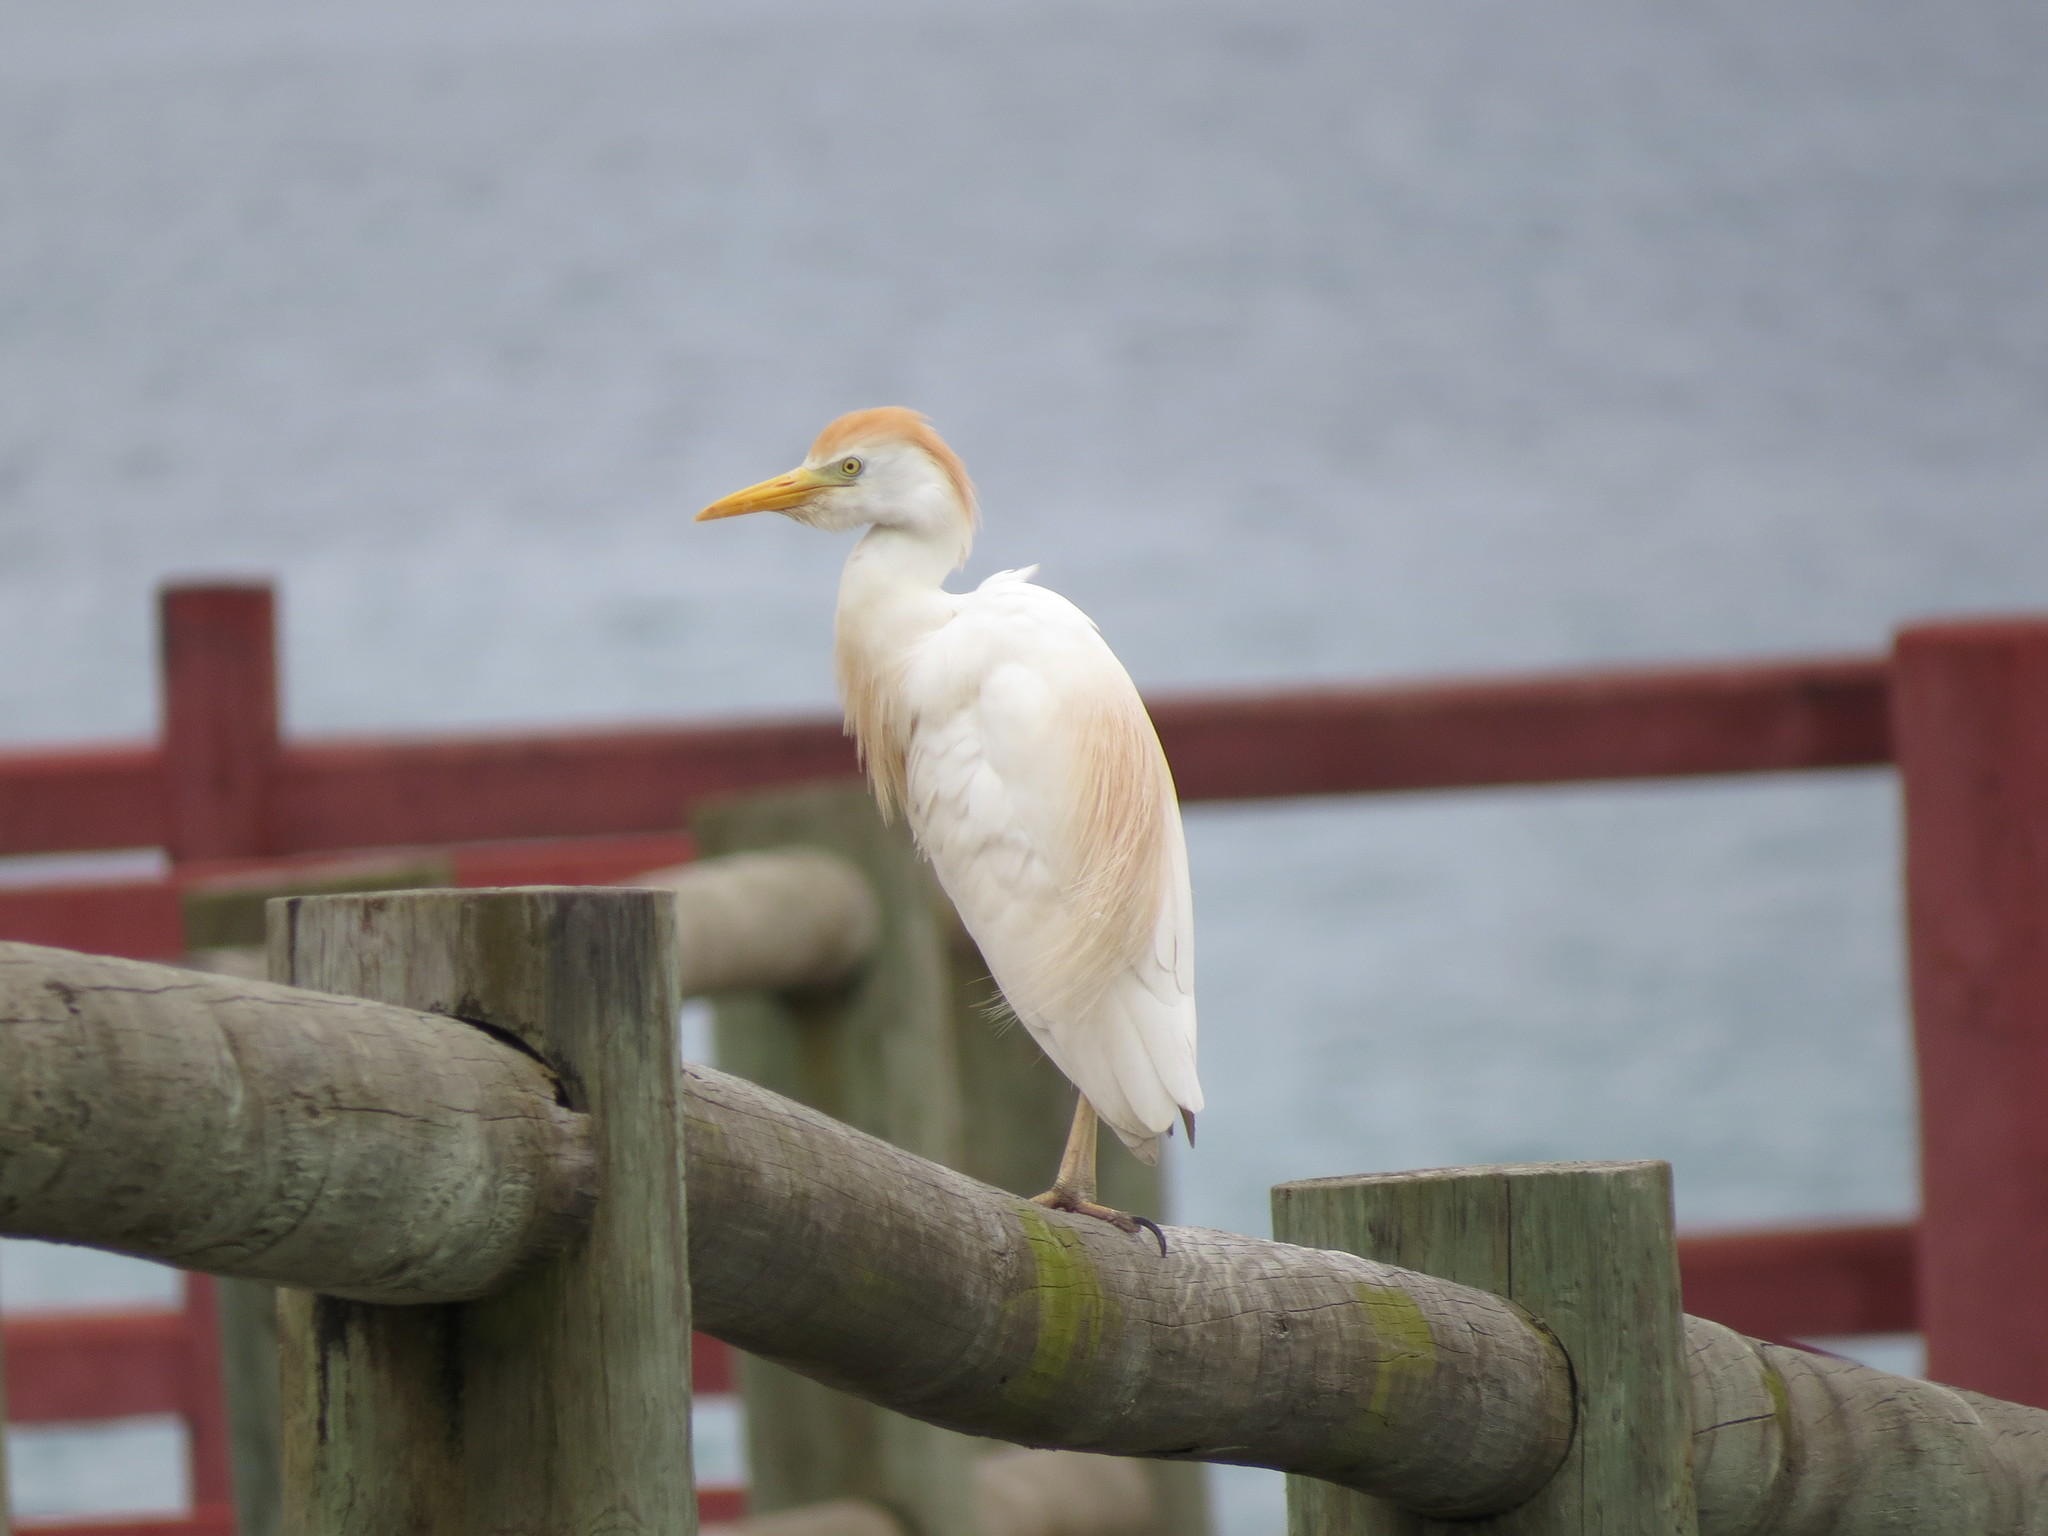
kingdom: Animalia
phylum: Chordata
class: Aves
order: Pelecaniformes
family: Ardeidae
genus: Bubulcus
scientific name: Bubulcus ibis
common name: Cattle egret
